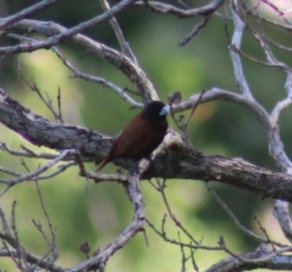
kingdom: Animalia
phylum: Chordata
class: Aves
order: Passeriformes
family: Estrildidae
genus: Lonchura
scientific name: Lonchura atricapilla
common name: Chestnut munia
